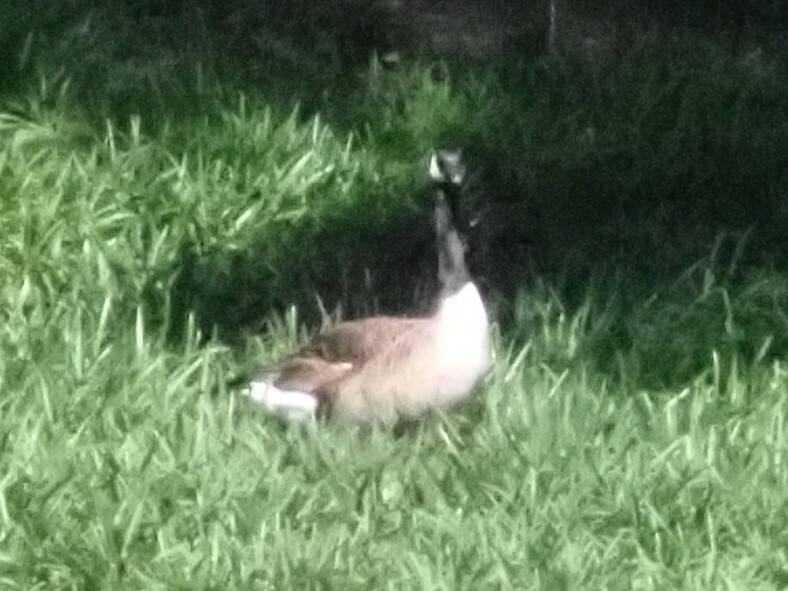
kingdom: Animalia
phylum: Chordata
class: Aves
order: Anseriformes
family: Anatidae
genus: Branta
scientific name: Branta canadensis
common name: Canada goose
